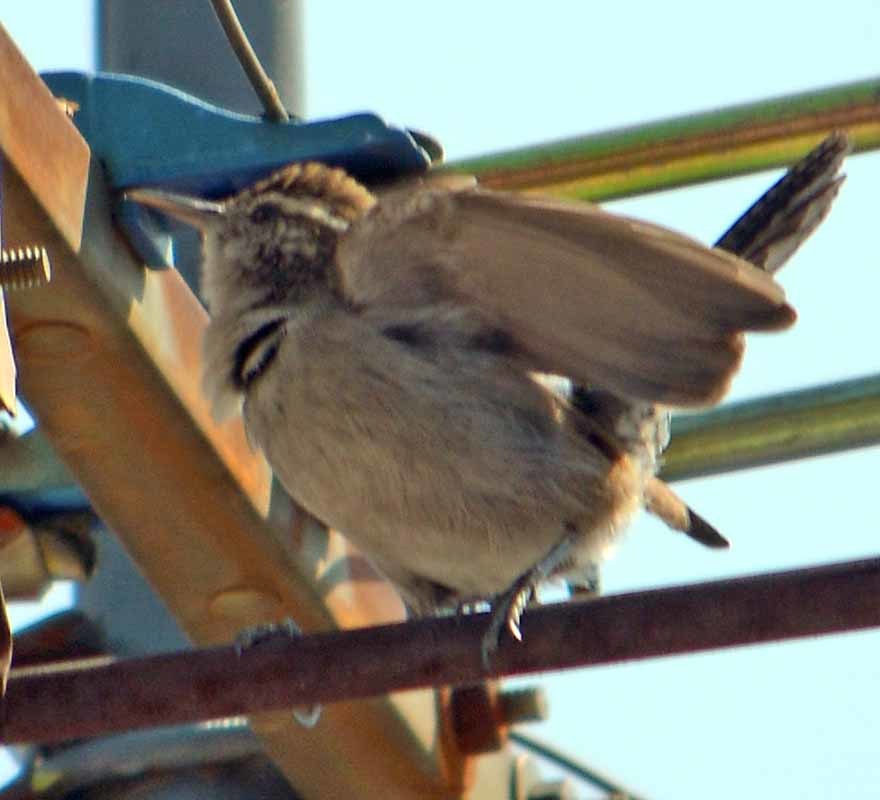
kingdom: Animalia
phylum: Chordata
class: Aves
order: Passeriformes
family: Troglodytidae
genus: Thryomanes
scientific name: Thryomanes bewickii
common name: Bewick's wren
